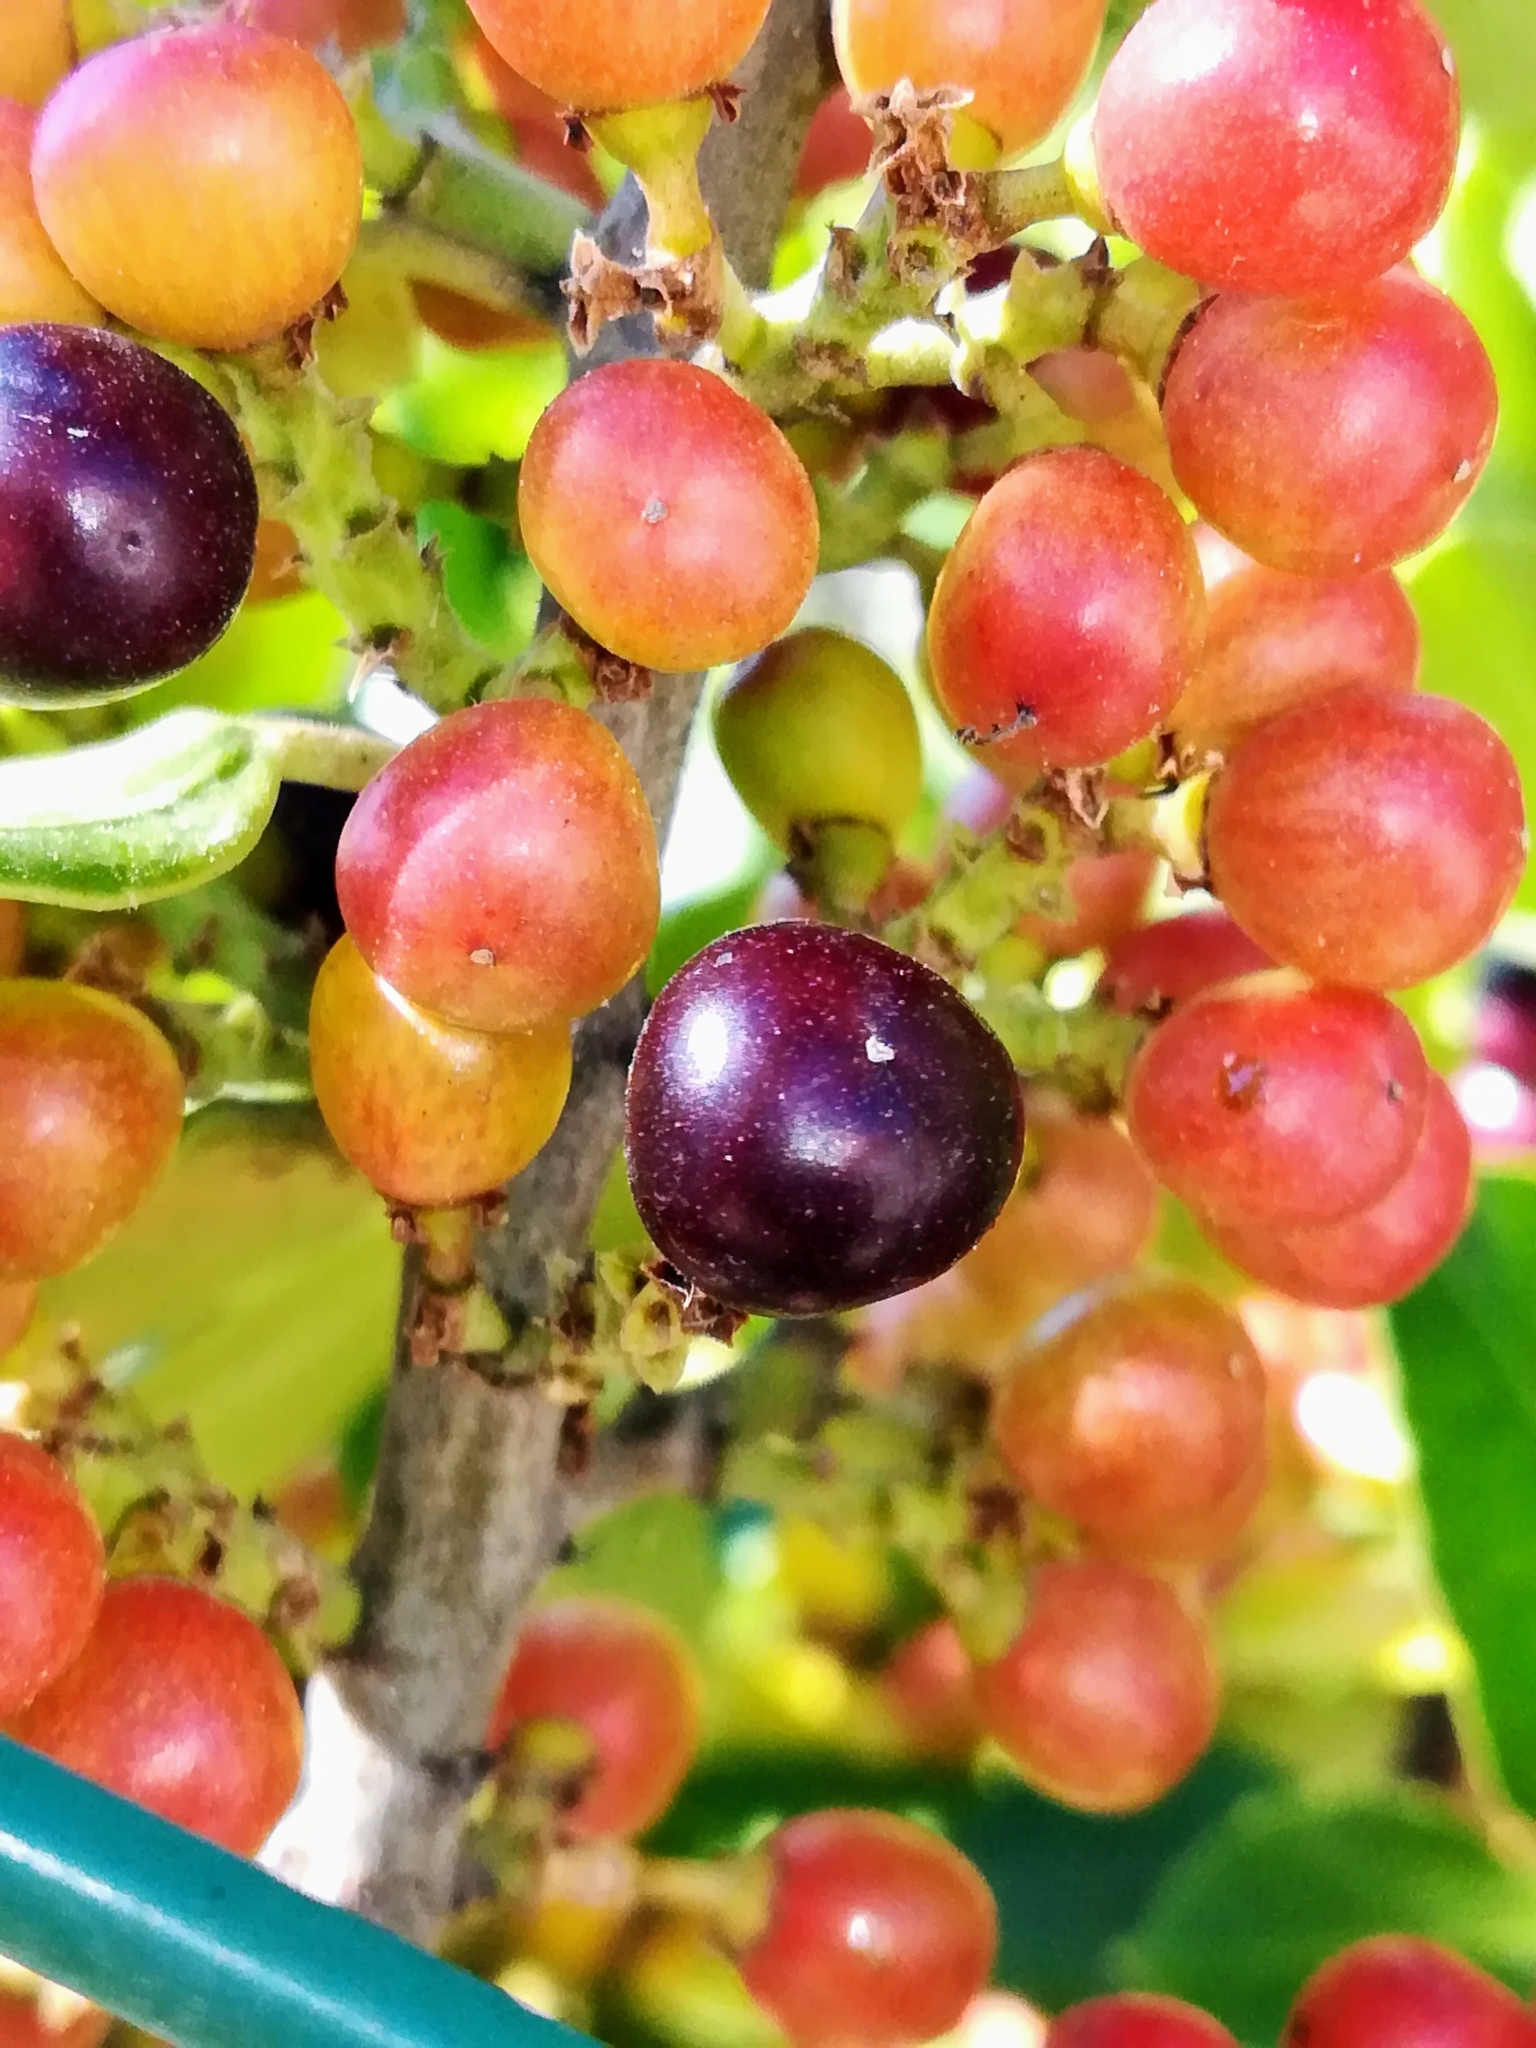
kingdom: Plantae
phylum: Tracheophyta
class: Magnoliopsida
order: Rosales
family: Rhamnaceae
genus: Rhamnus
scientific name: Rhamnus alaternus
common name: Mediterranean buckthorn
